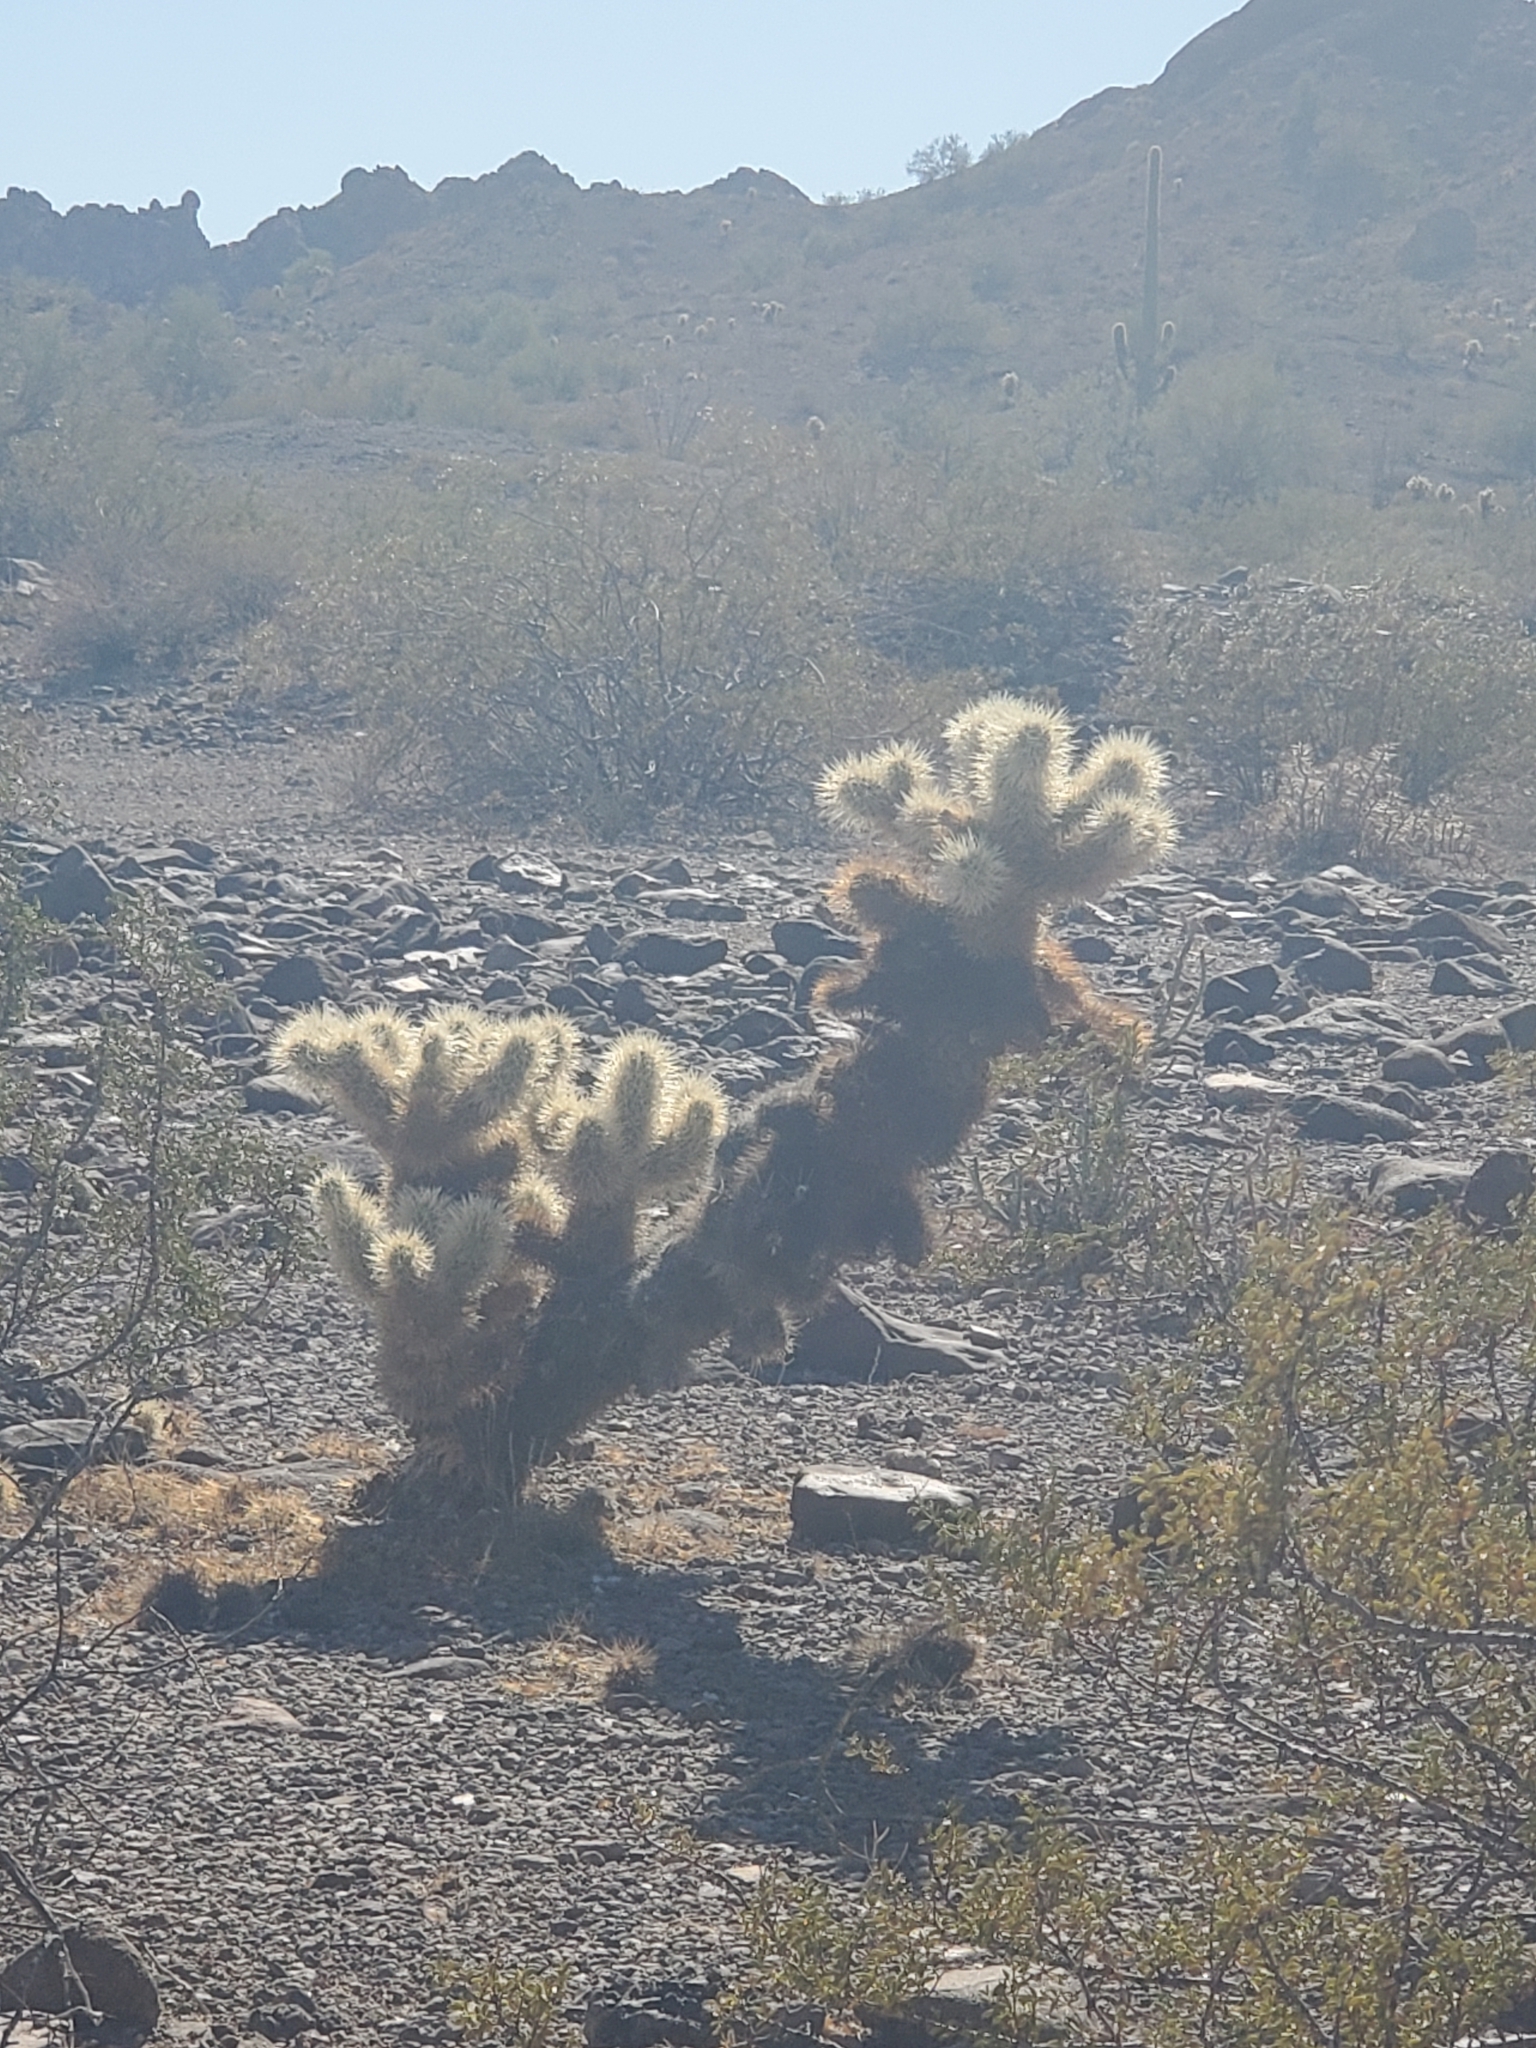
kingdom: Plantae
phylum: Tracheophyta
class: Magnoliopsida
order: Caryophyllales
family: Cactaceae
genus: Cylindropuntia
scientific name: Cylindropuntia fosbergii
